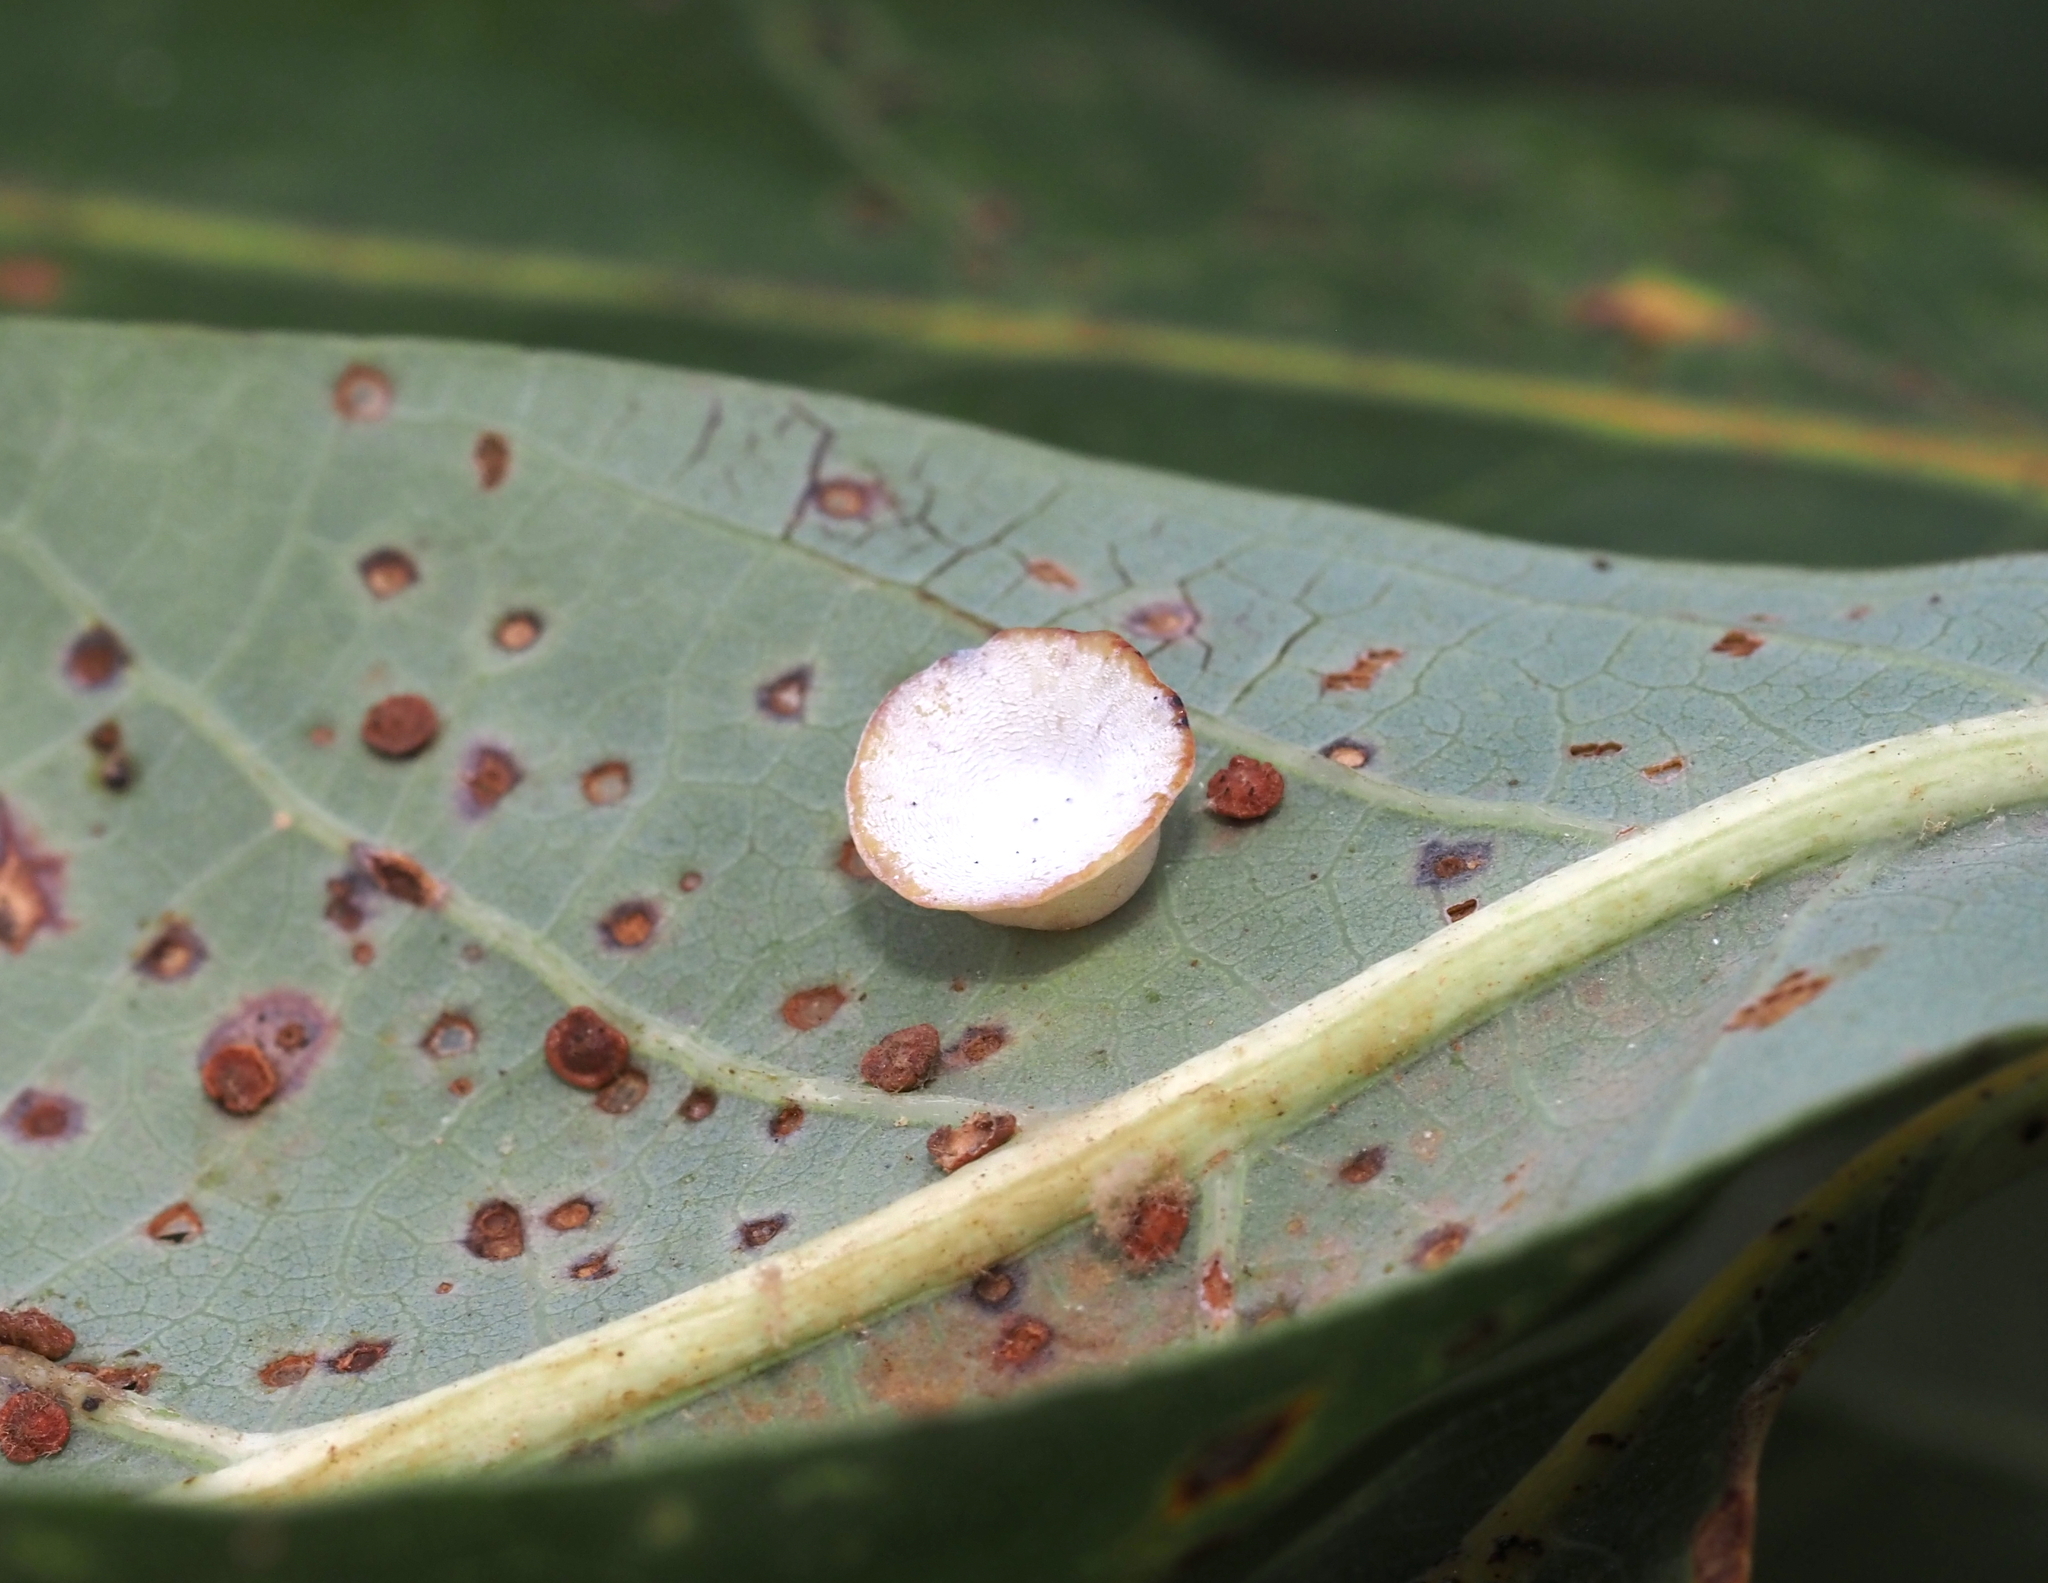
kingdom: Animalia
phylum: Arthropoda
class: Insecta
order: Hymenoptera
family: Cynipidae
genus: Phylloteras
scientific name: Phylloteras poculum
